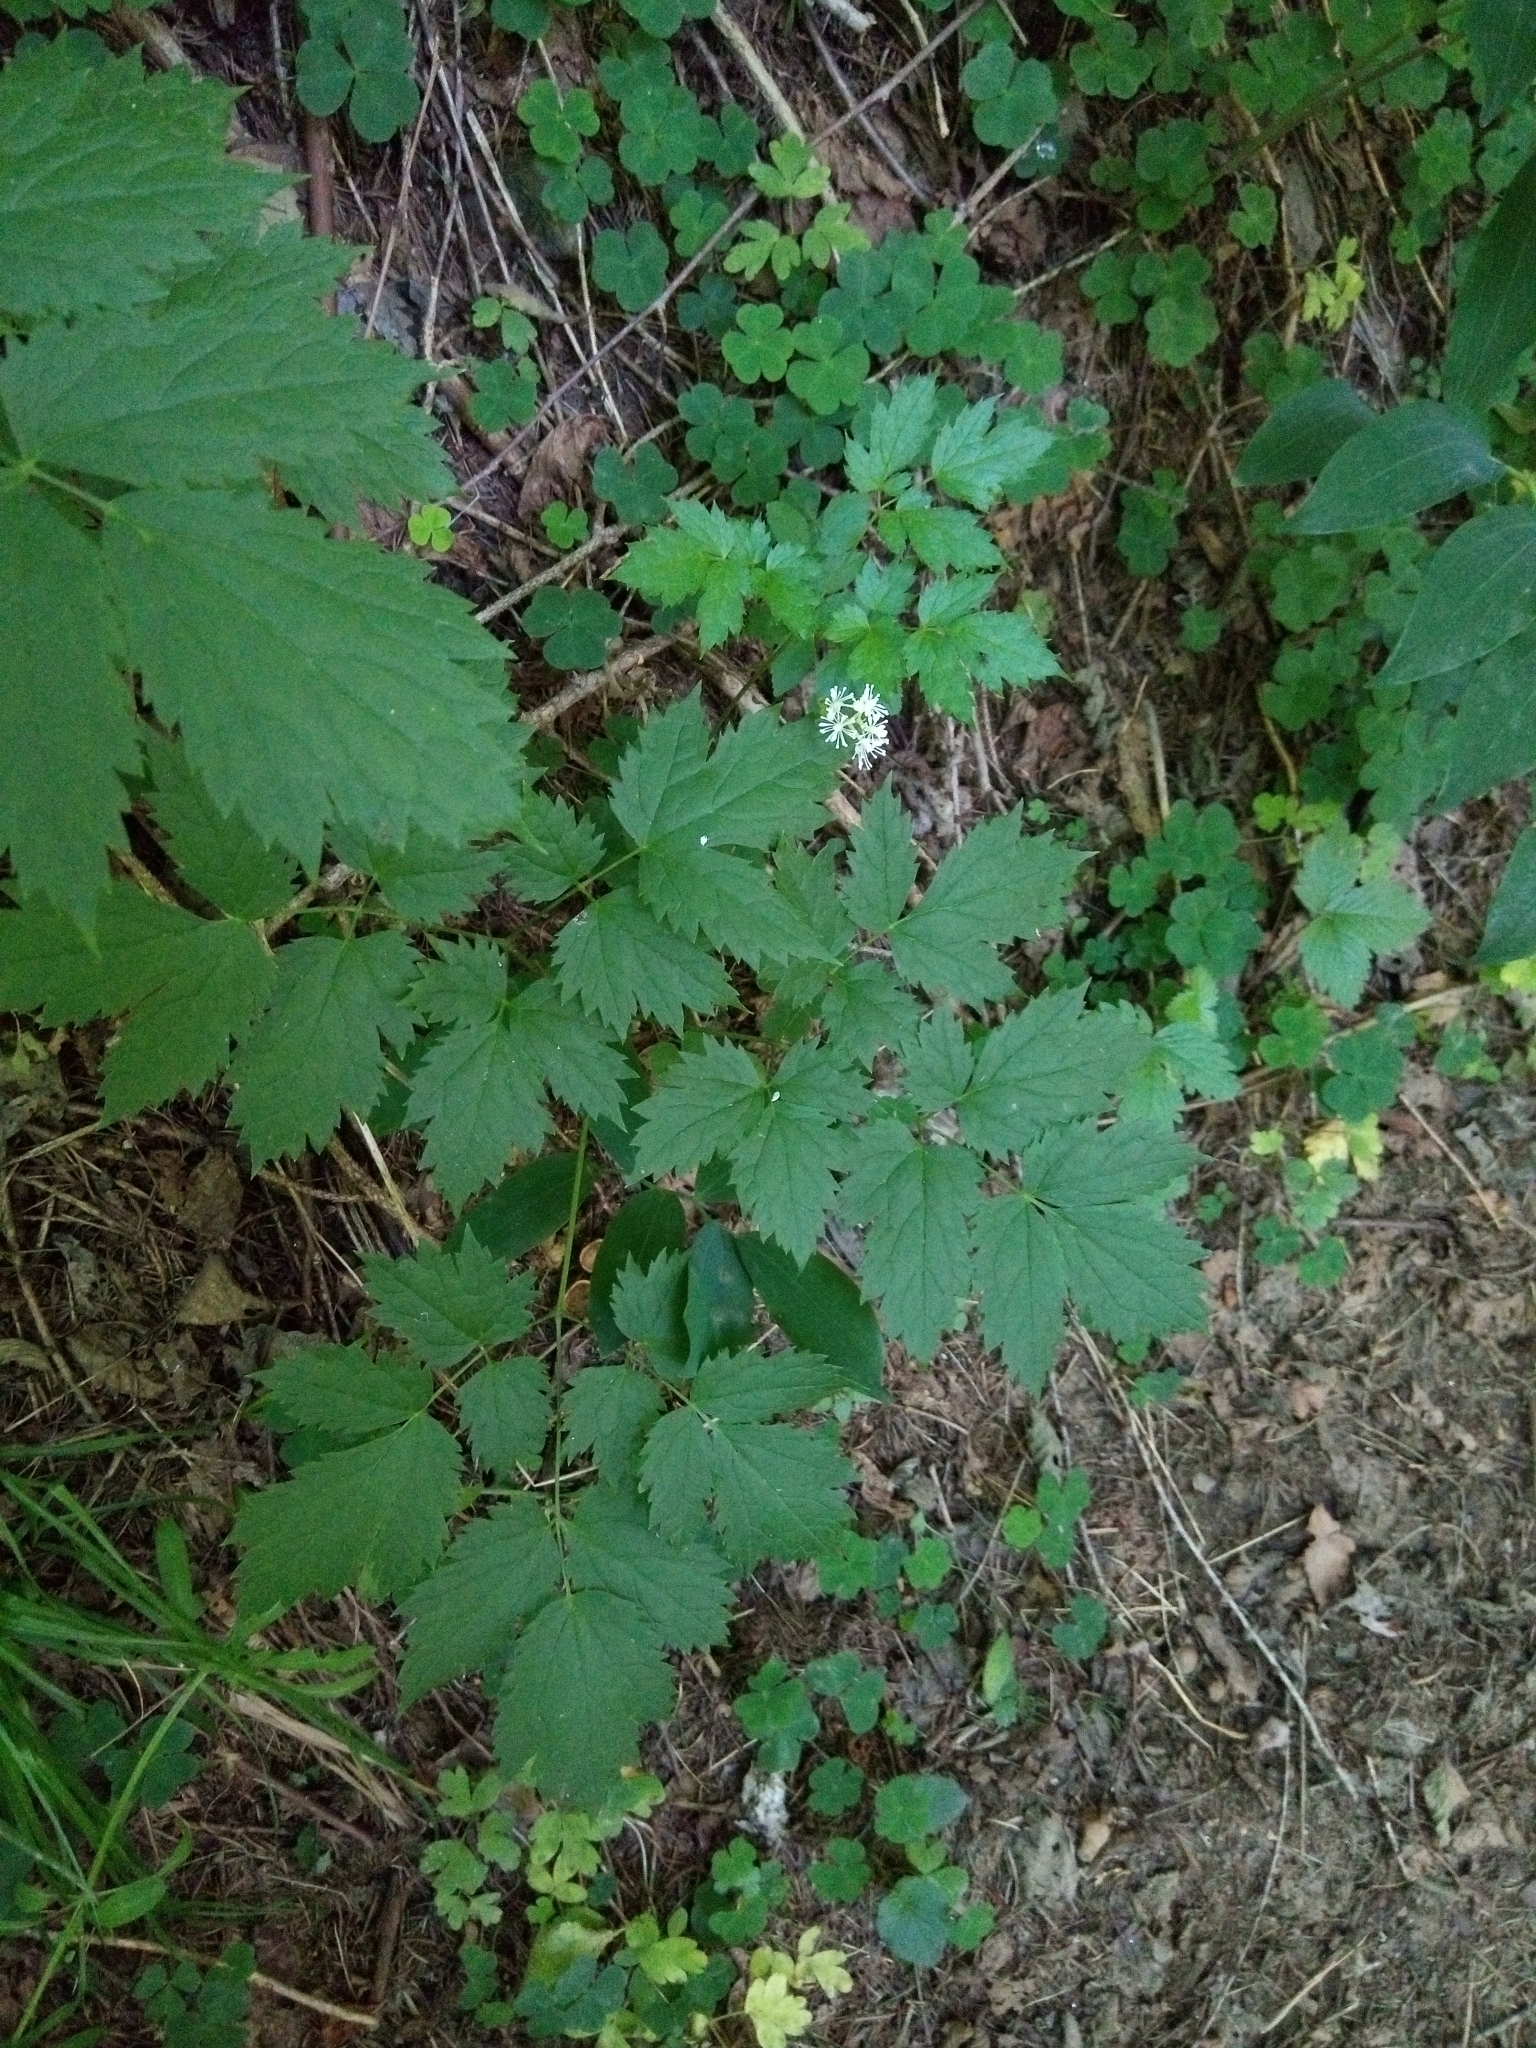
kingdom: Plantae
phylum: Tracheophyta
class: Magnoliopsida
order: Ranunculales
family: Ranunculaceae
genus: Actaea
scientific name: Actaea spicata
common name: Baneberry
